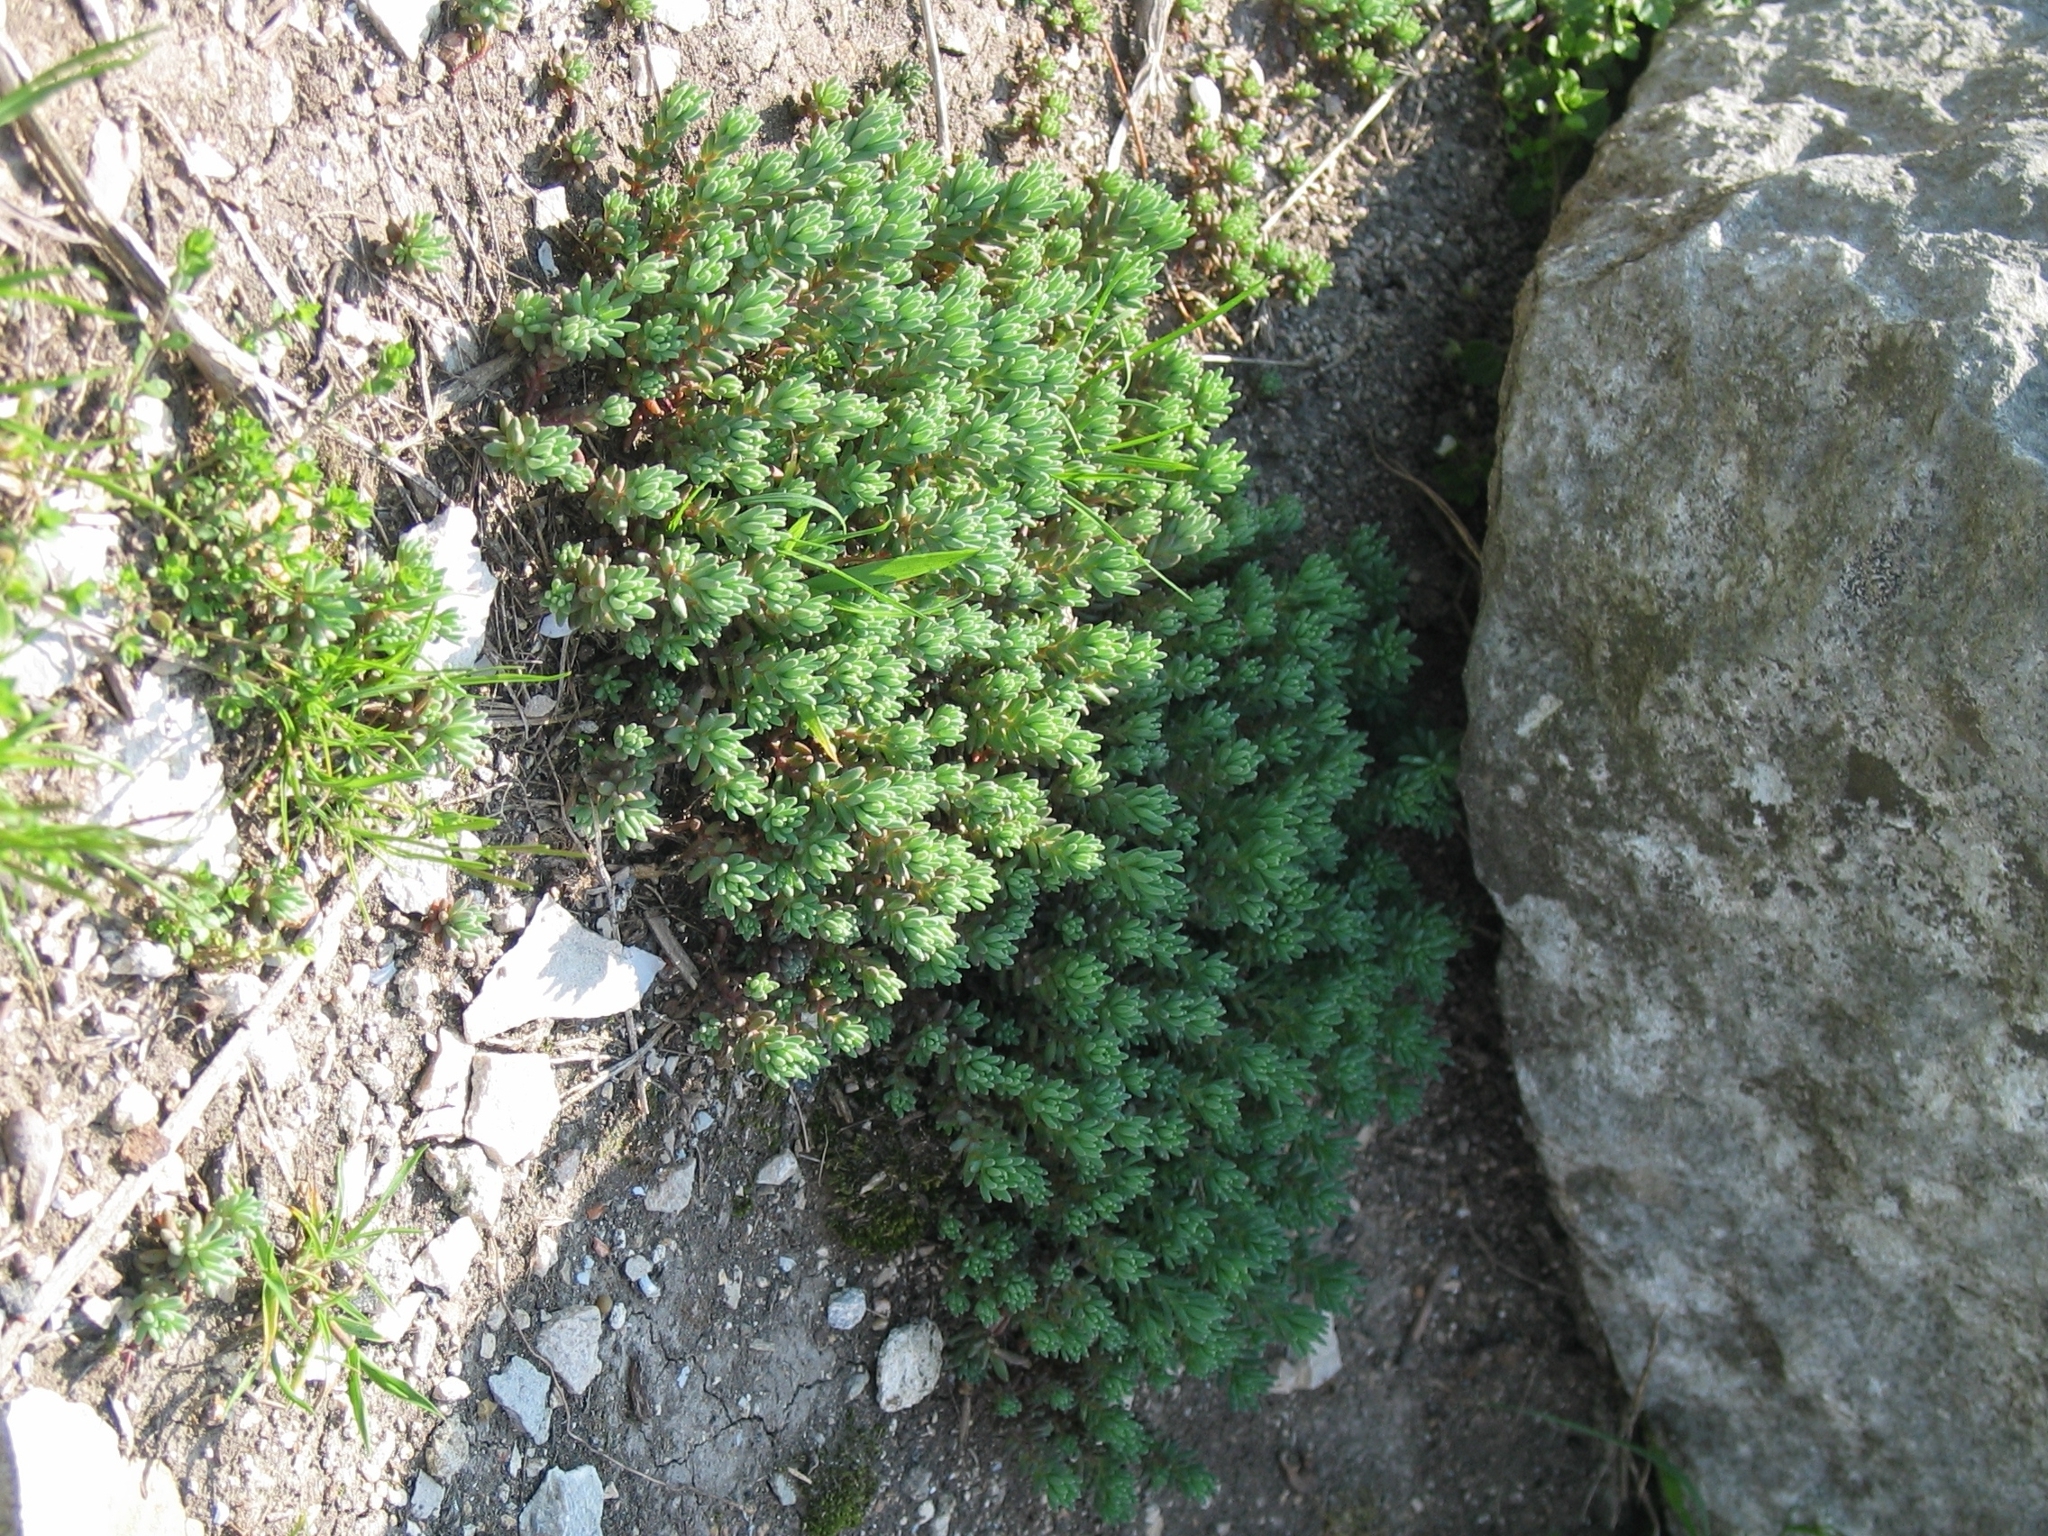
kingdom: Plantae
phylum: Tracheophyta
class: Magnoliopsida
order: Saxifragales
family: Crassulaceae
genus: Sedum
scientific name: Sedum hispanicum
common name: Spanish stonecrop
